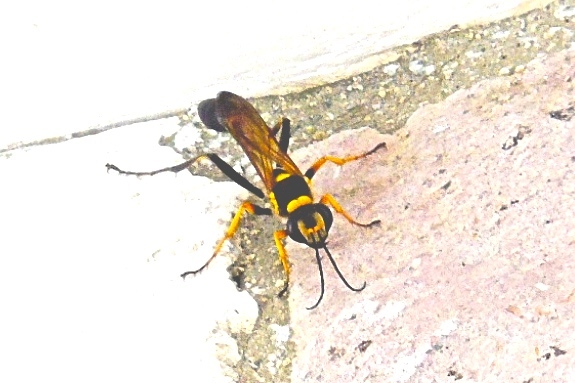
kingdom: Animalia
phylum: Arthropoda
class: Insecta
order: Hymenoptera
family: Sphecidae
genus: Sceliphron
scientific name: Sceliphron
